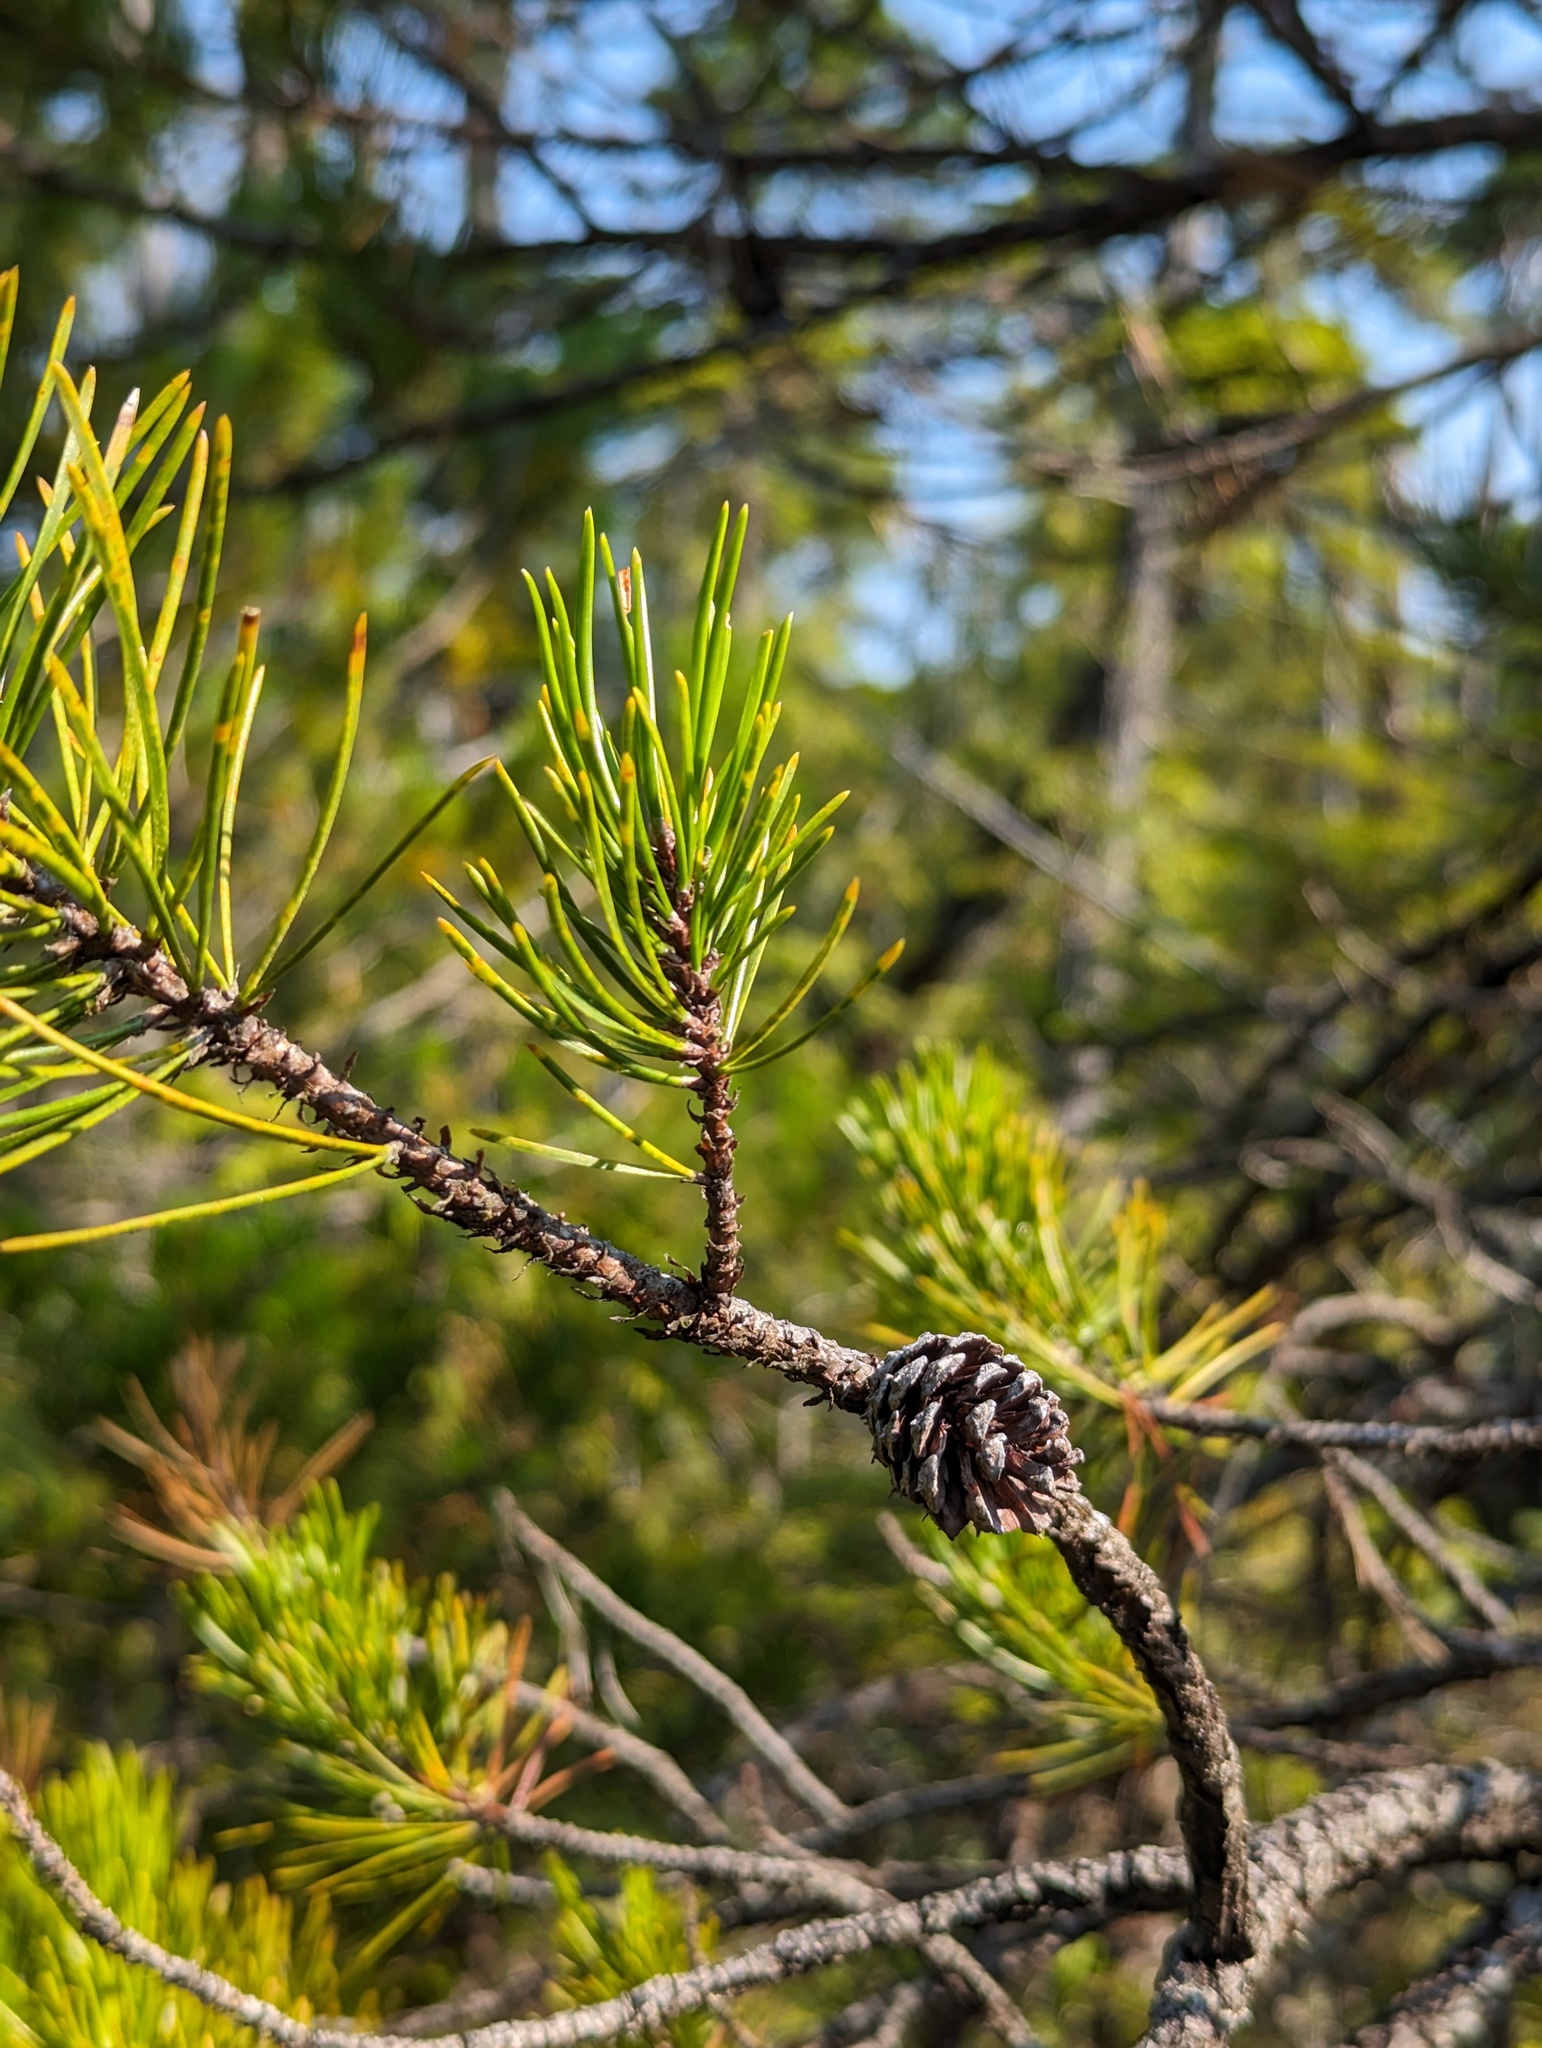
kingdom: Plantae
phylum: Tracheophyta
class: Pinopsida
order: Pinales
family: Pinaceae
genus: Pinus
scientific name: Pinus contorta
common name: Lodgepole pine
